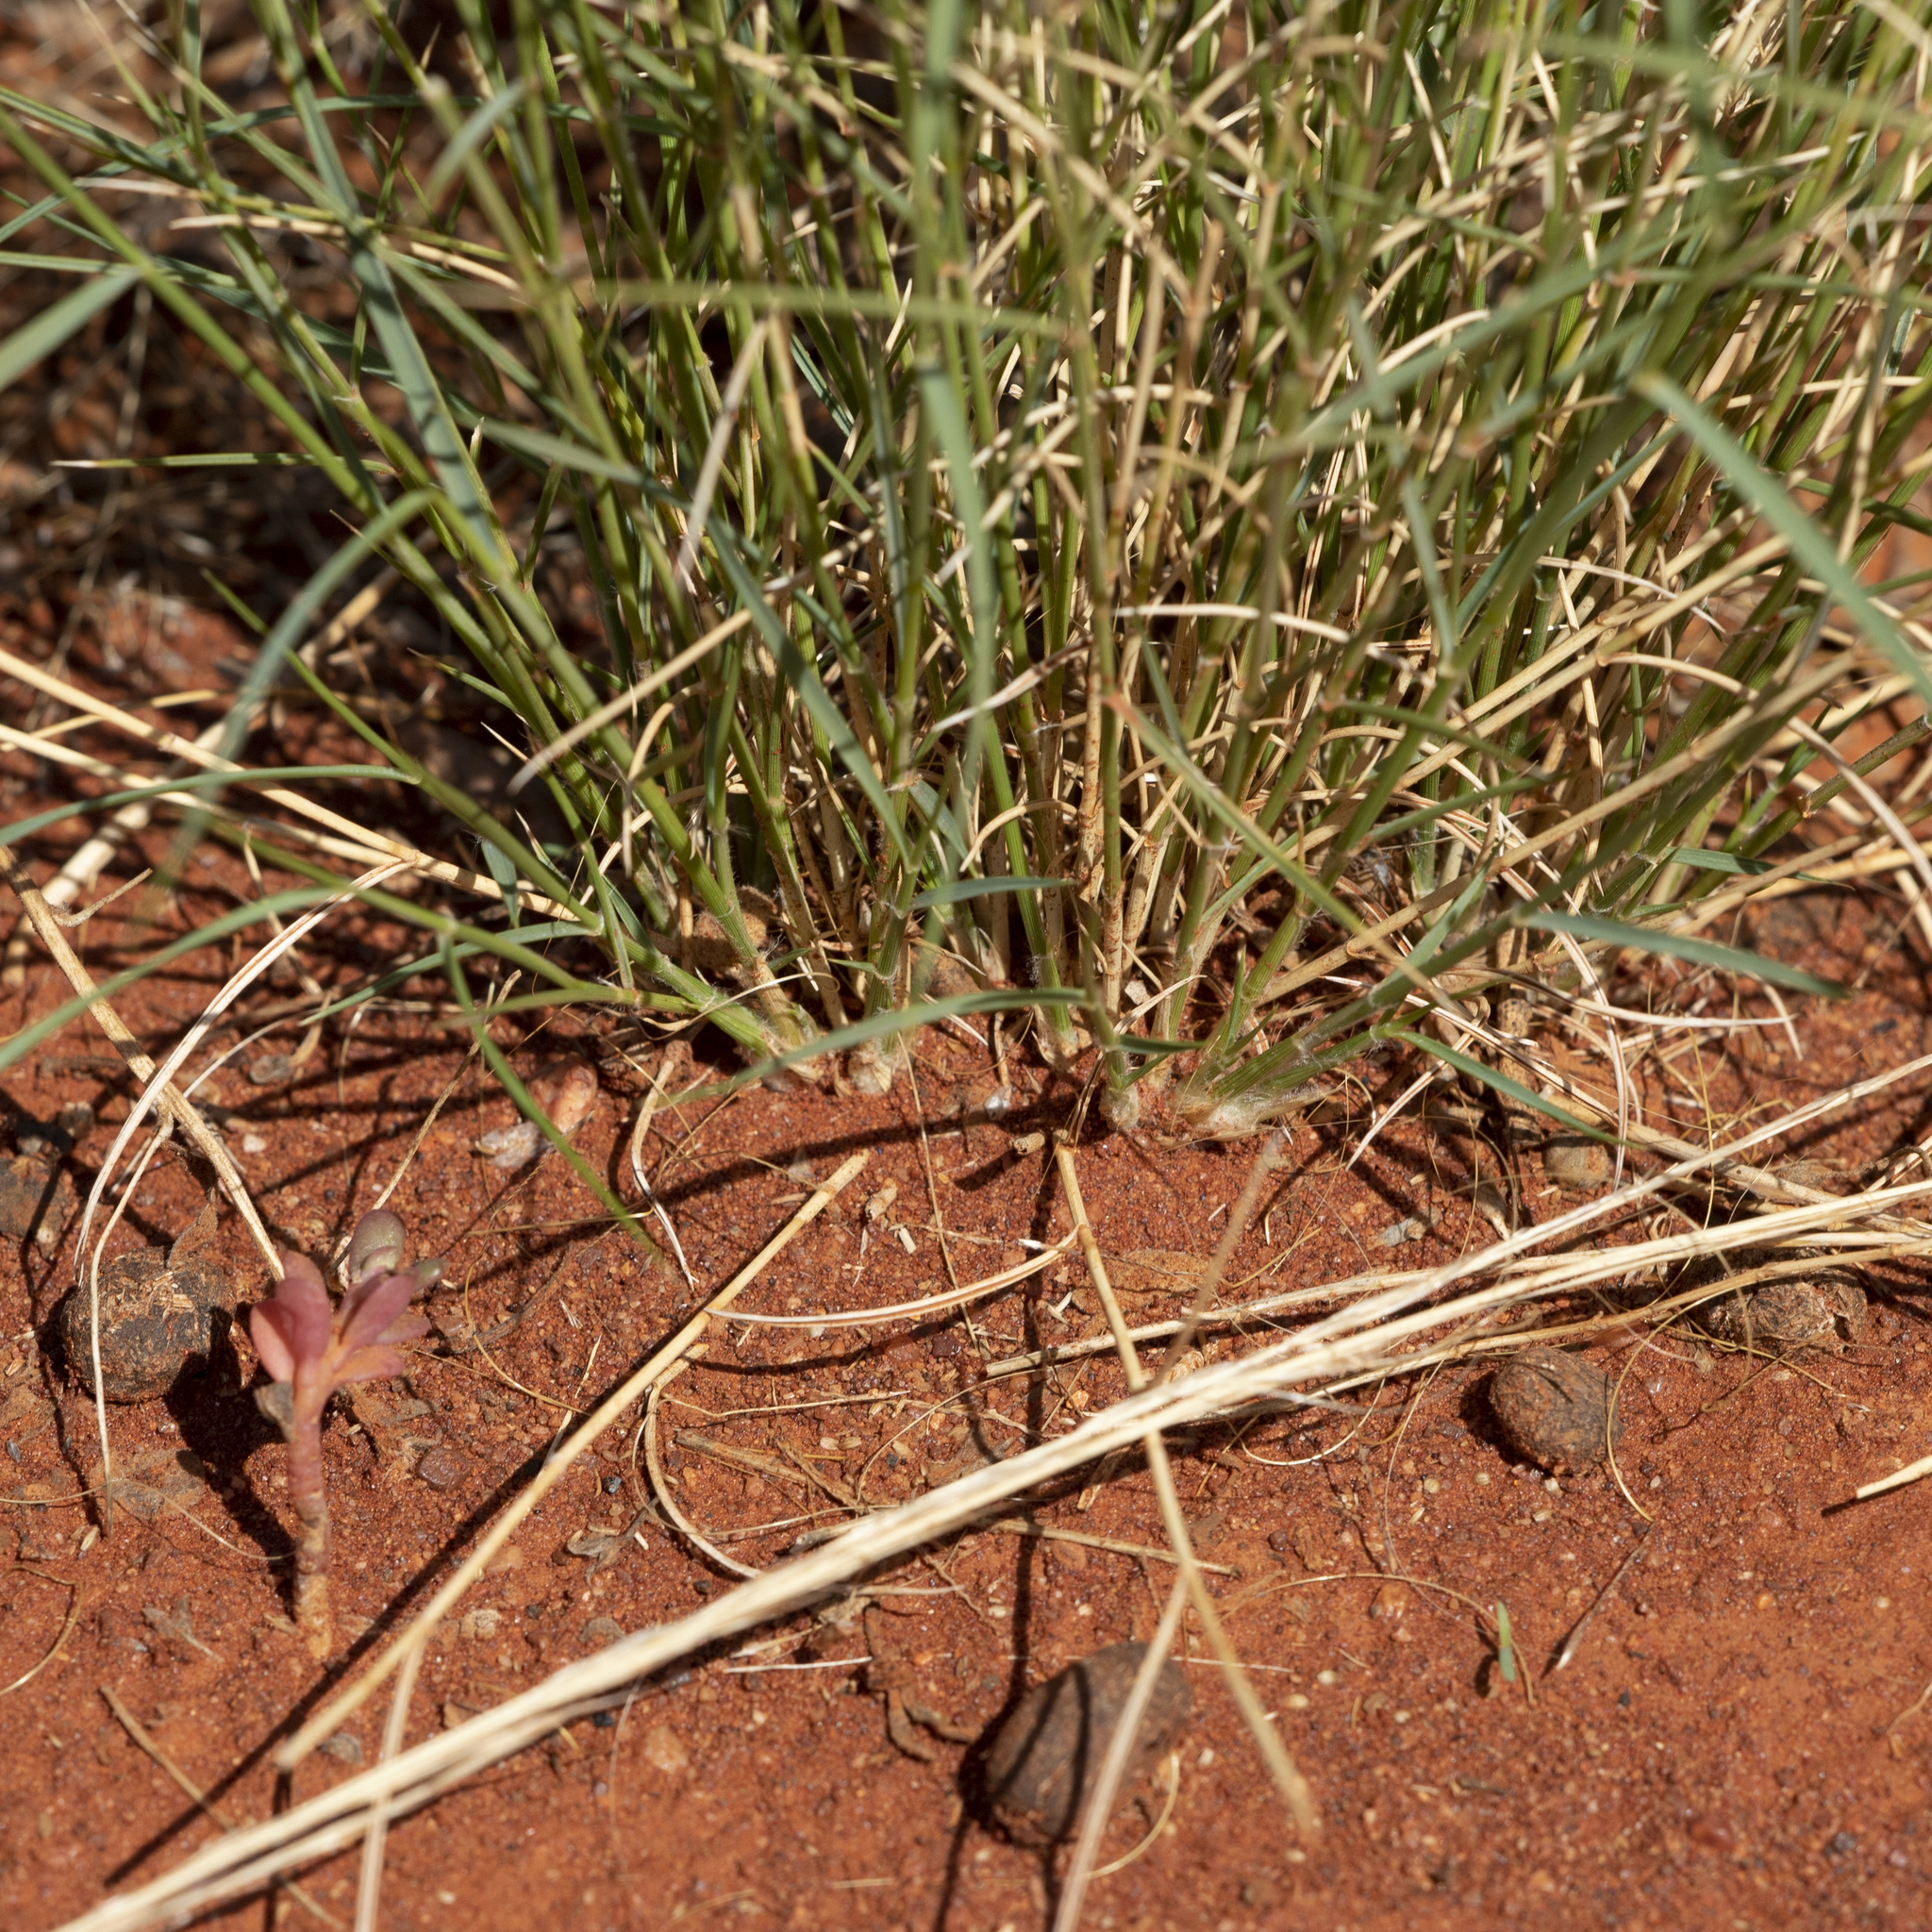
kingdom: Plantae
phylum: Tracheophyta
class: Liliopsida
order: Poales
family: Poaceae
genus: Eragrostis
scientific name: Eragrostis eriopoda
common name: Plain neverfail
